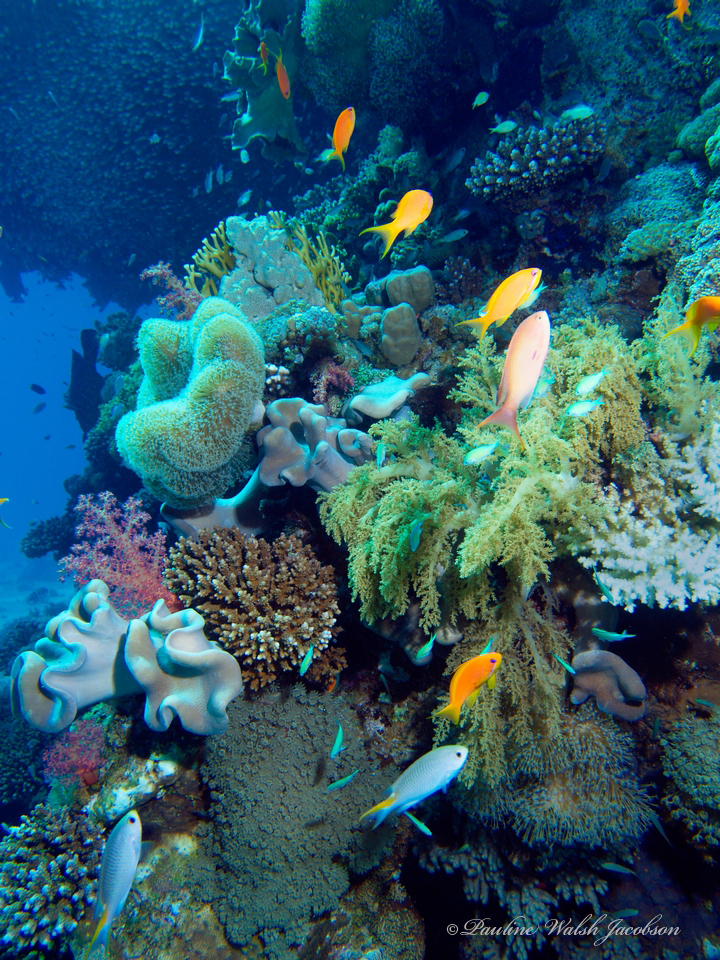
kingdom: Animalia
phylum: Chordata
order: Perciformes
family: Pomacentridae
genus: Neopomacentrus
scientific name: Neopomacentrus miryae
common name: Miry's demoiselle
